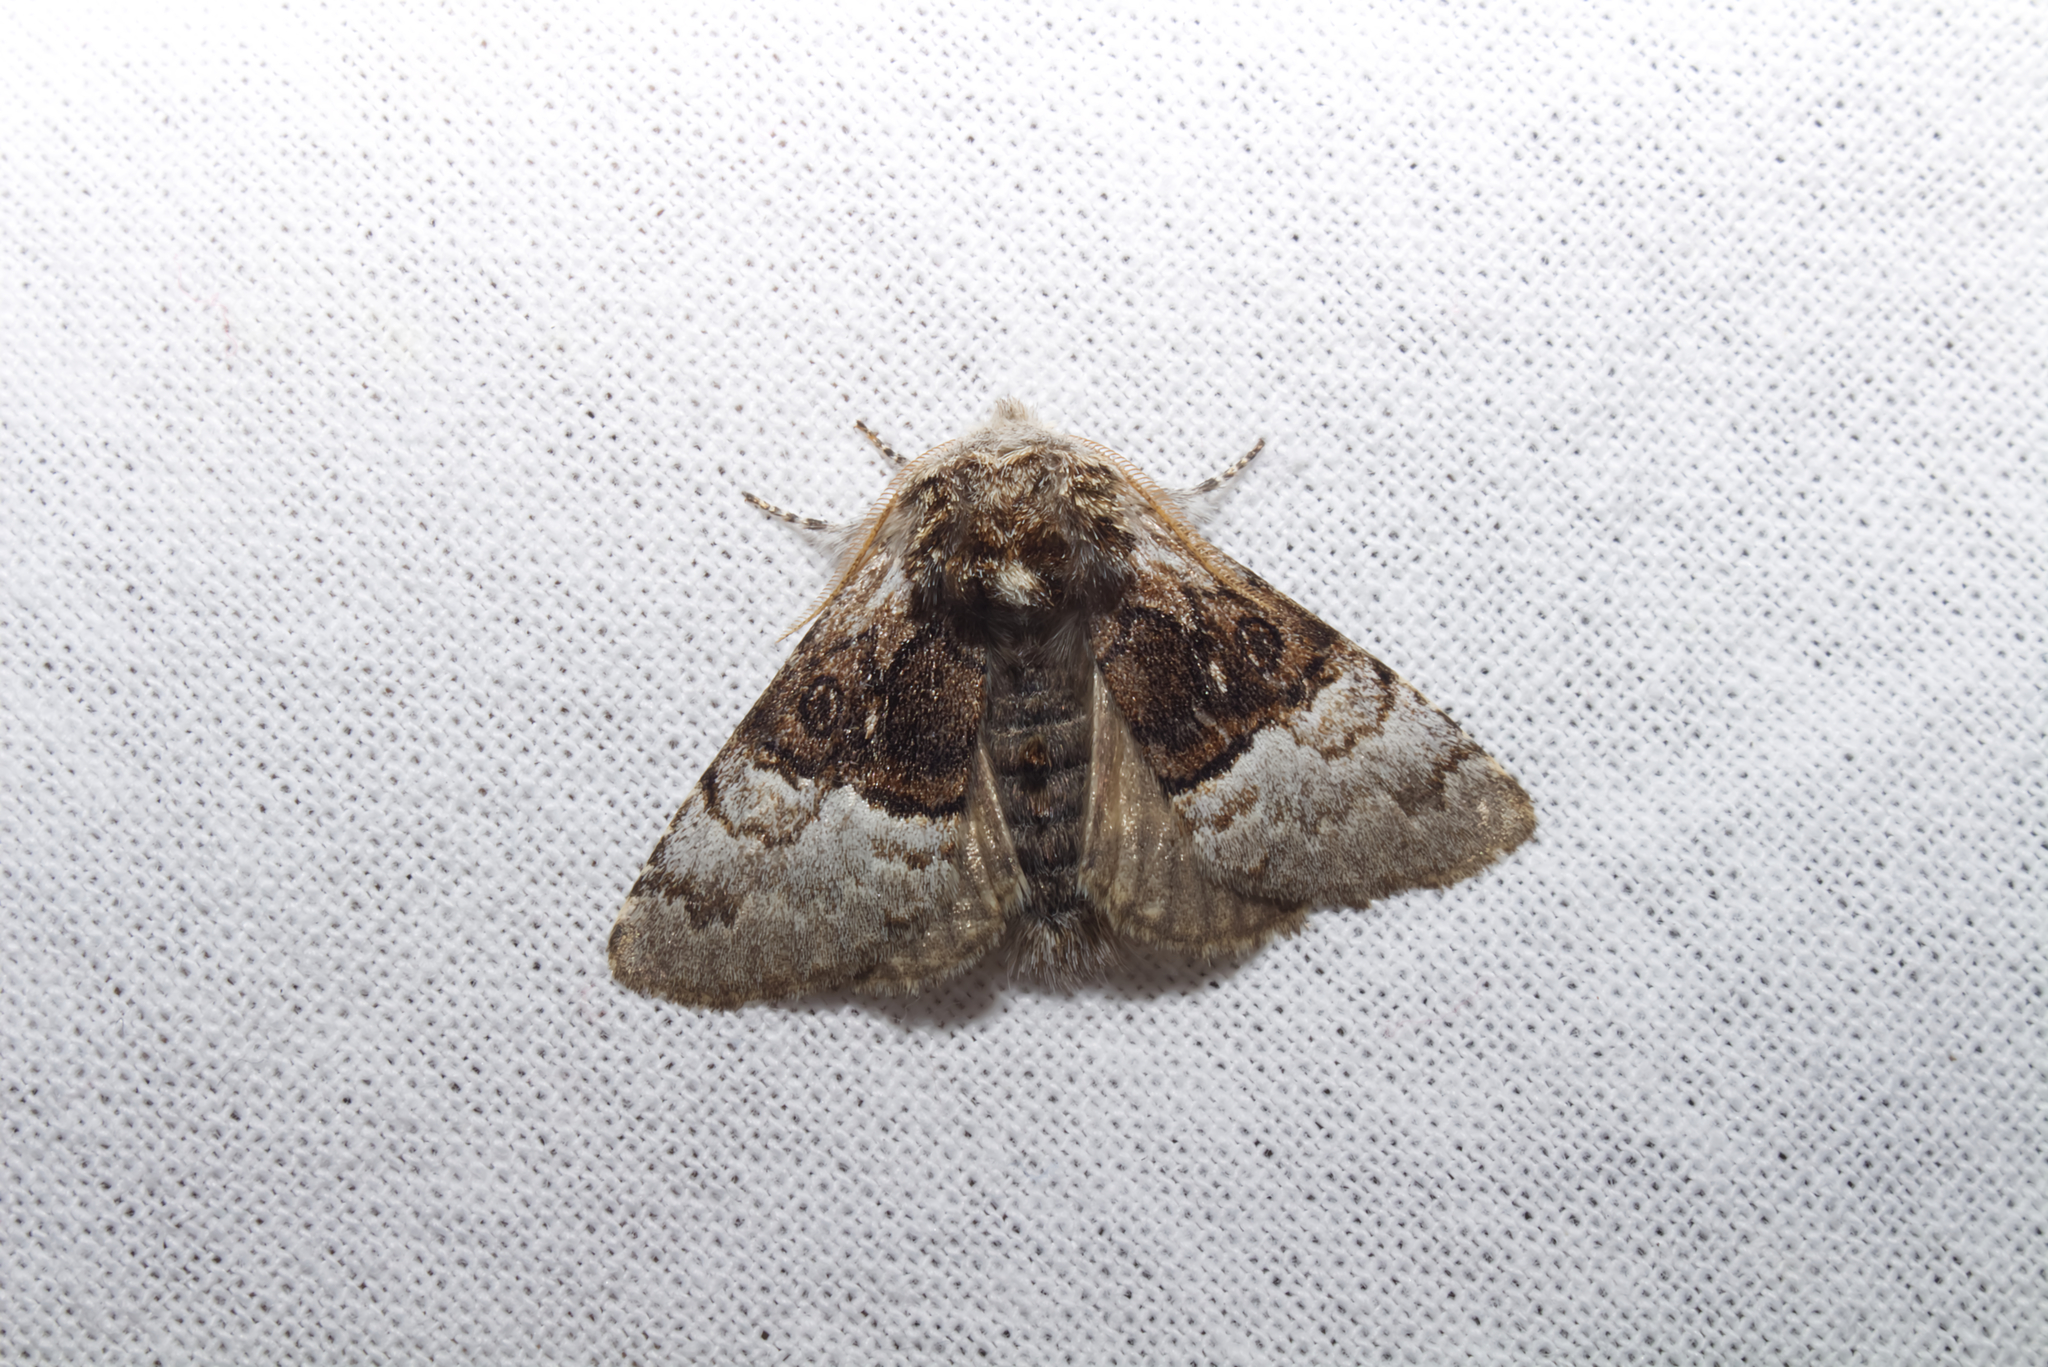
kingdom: Animalia
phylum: Arthropoda
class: Insecta
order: Lepidoptera
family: Noctuidae
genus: Colocasia
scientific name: Colocasia coryli
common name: Nut-tree tussock
